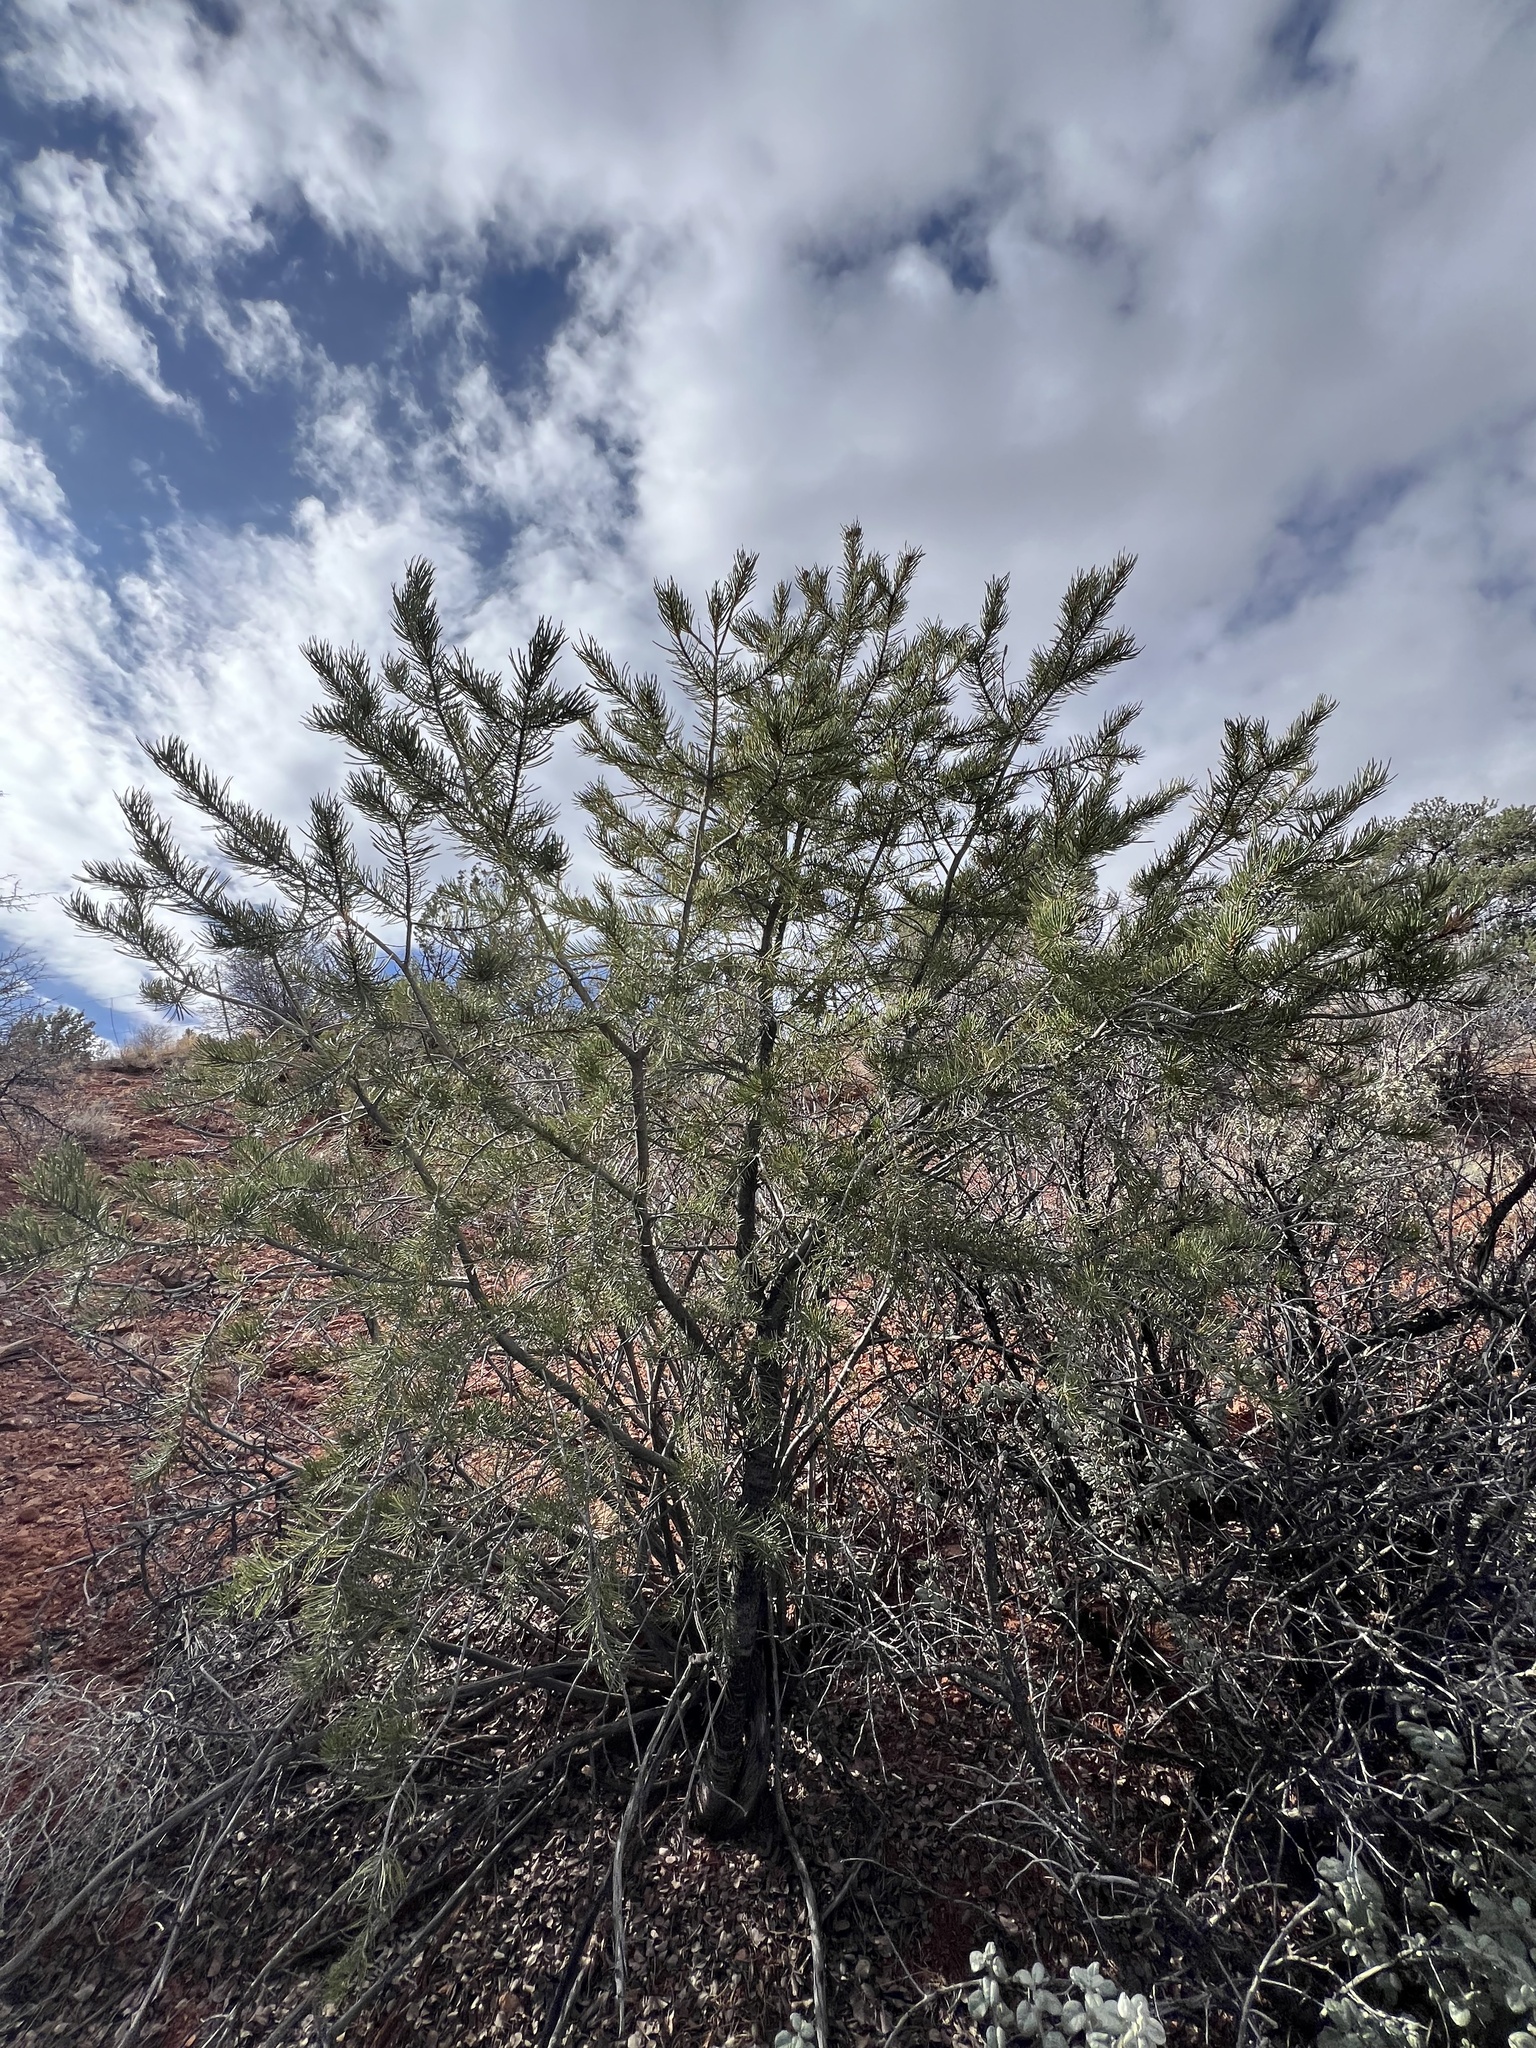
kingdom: Plantae
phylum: Tracheophyta
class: Pinopsida
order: Pinales
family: Pinaceae
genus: Pinus
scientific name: Pinus edulis
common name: Colorado pinyon
